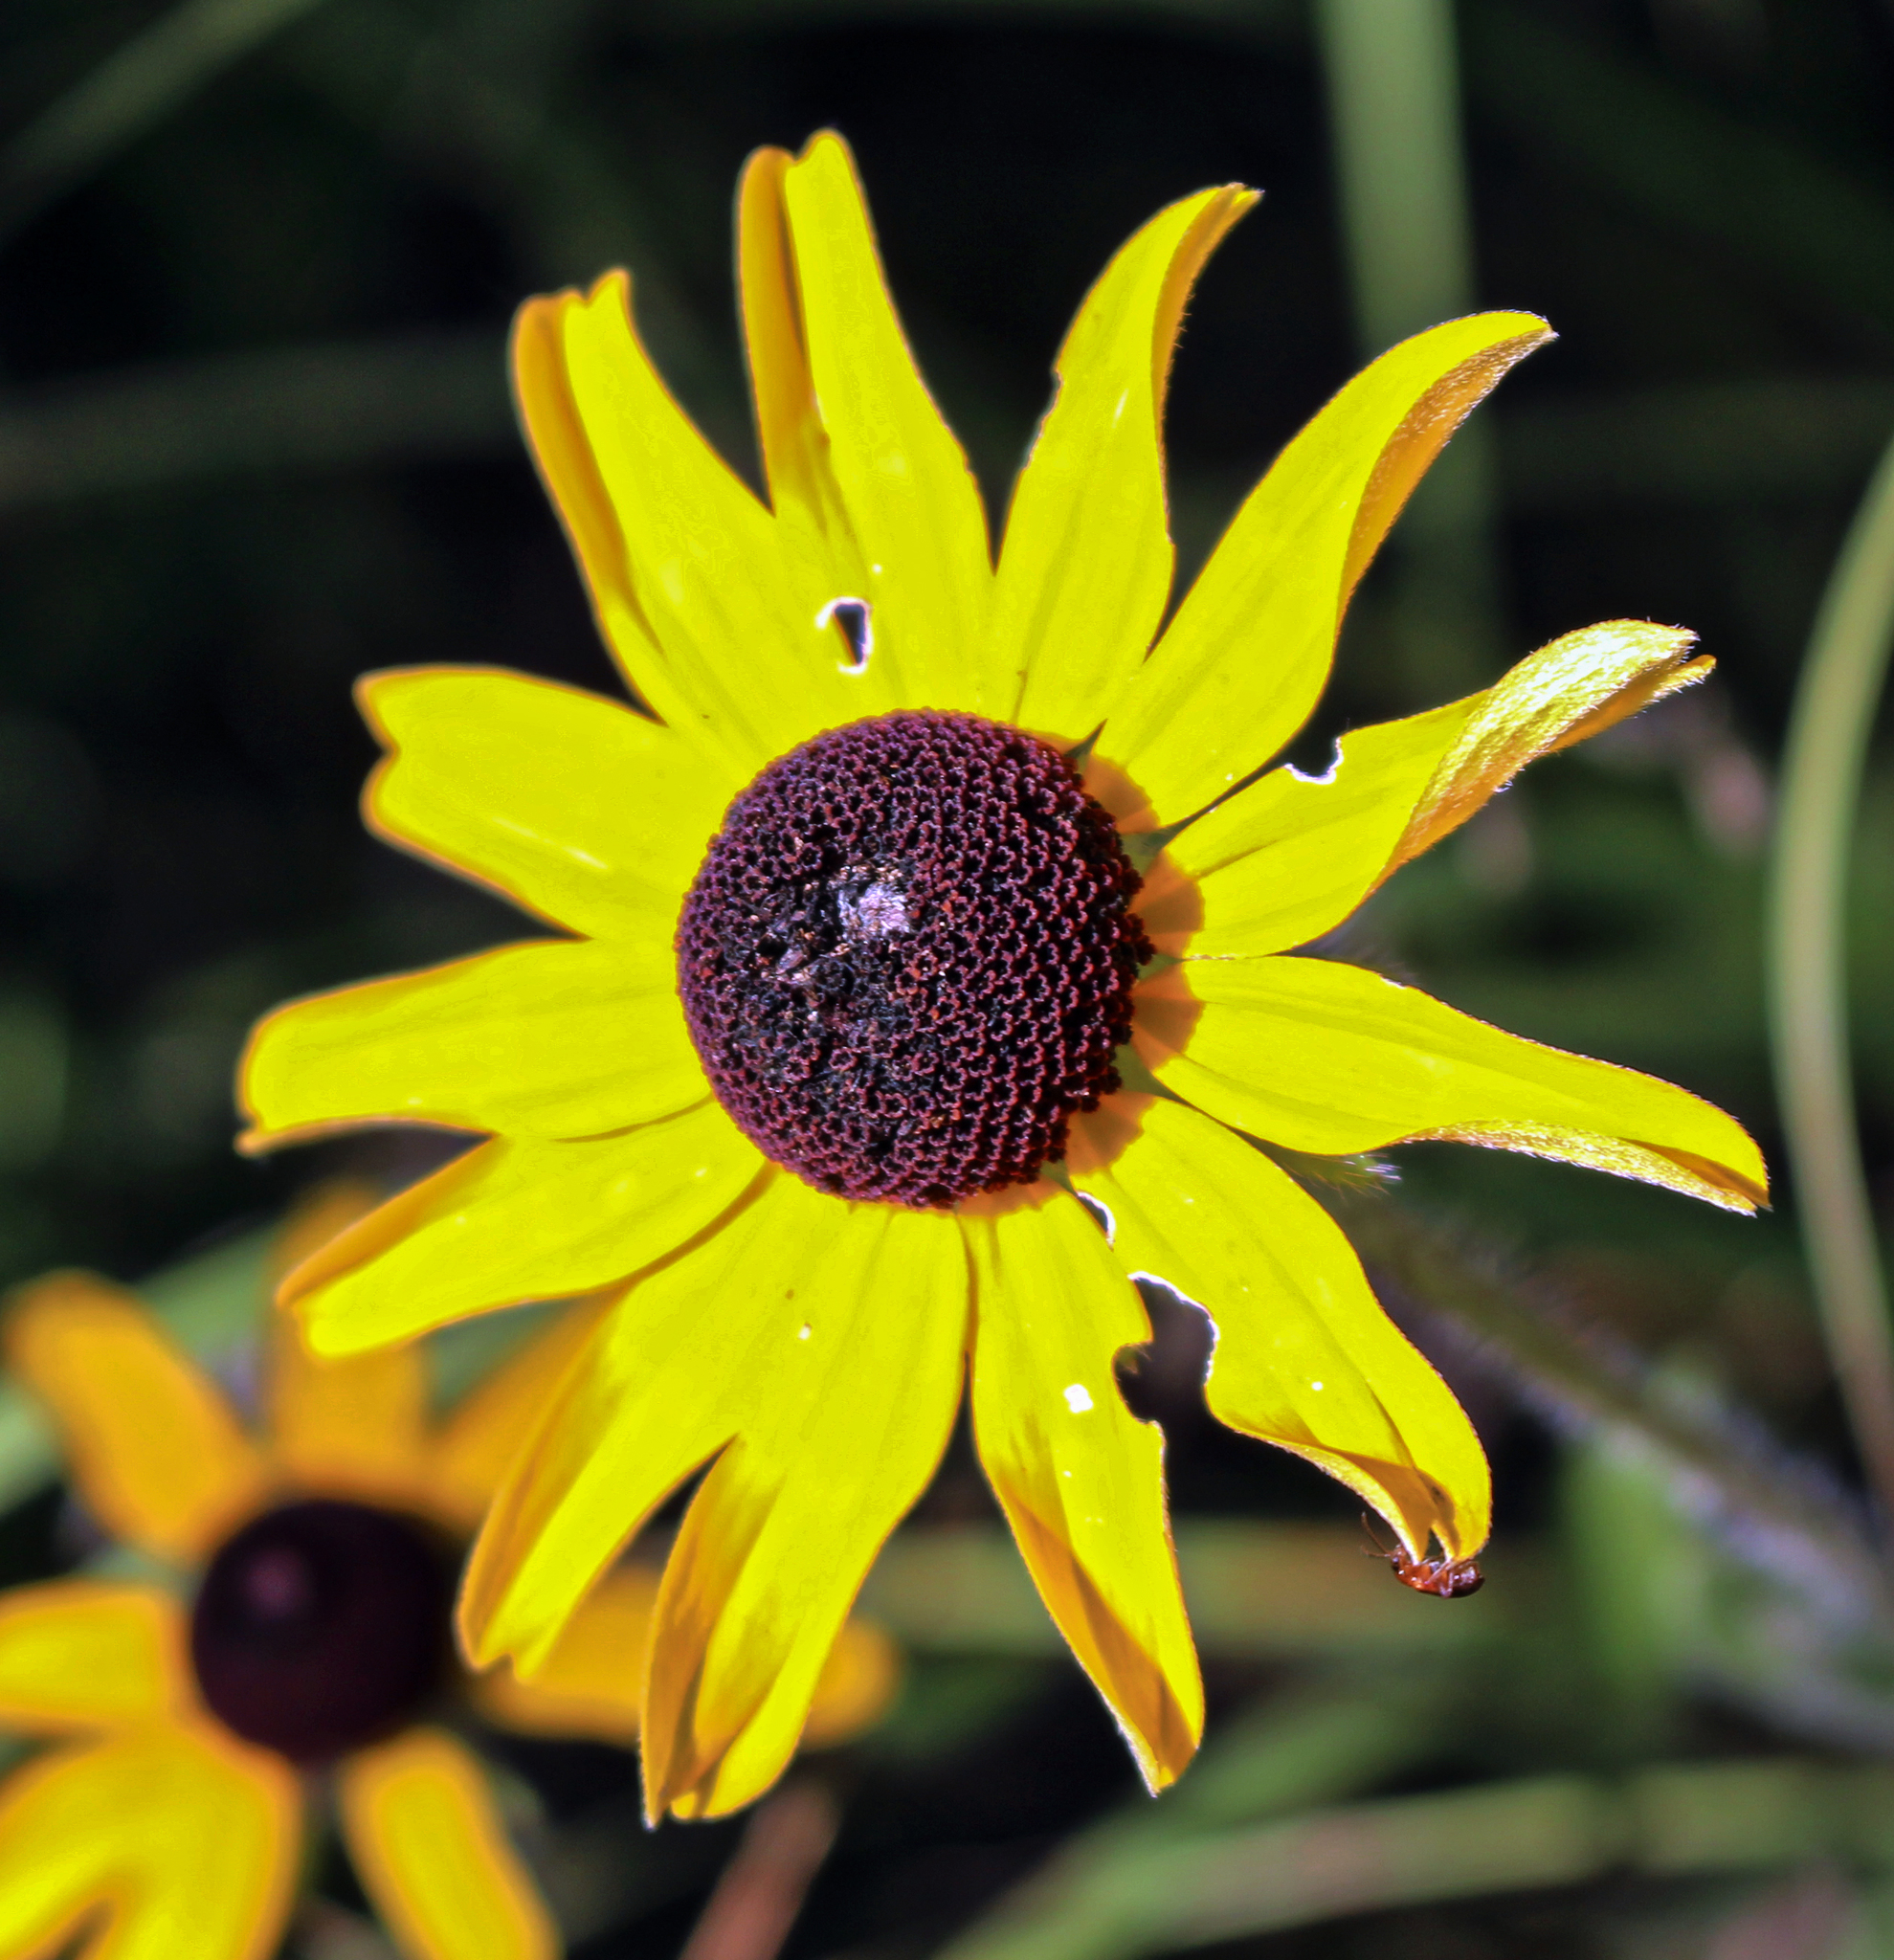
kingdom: Plantae
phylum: Tracheophyta
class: Magnoliopsida
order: Asterales
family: Asteraceae
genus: Rudbeckia
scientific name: Rudbeckia hirta
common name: Black-eyed-susan
